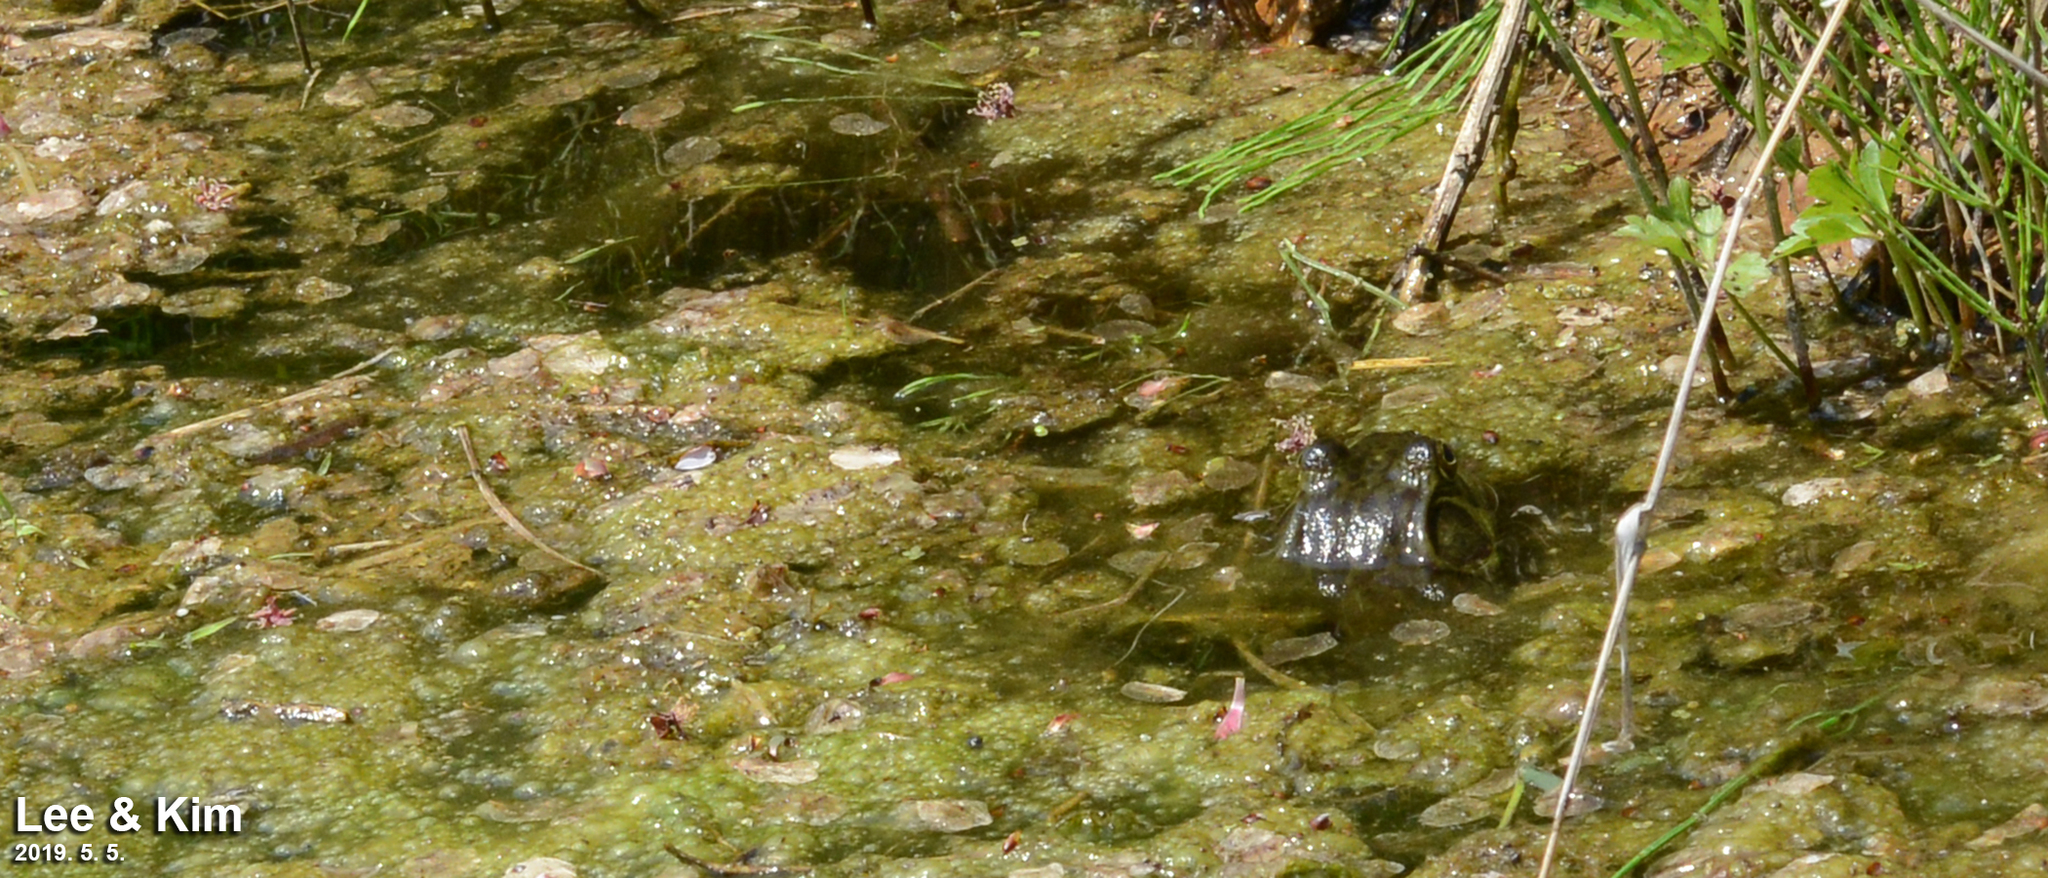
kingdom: Animalia
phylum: Chordata
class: Amphibia
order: Anura
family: Ranidae
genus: Lithobates
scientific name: Lithobates catesbeianus
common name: American bullfrog
